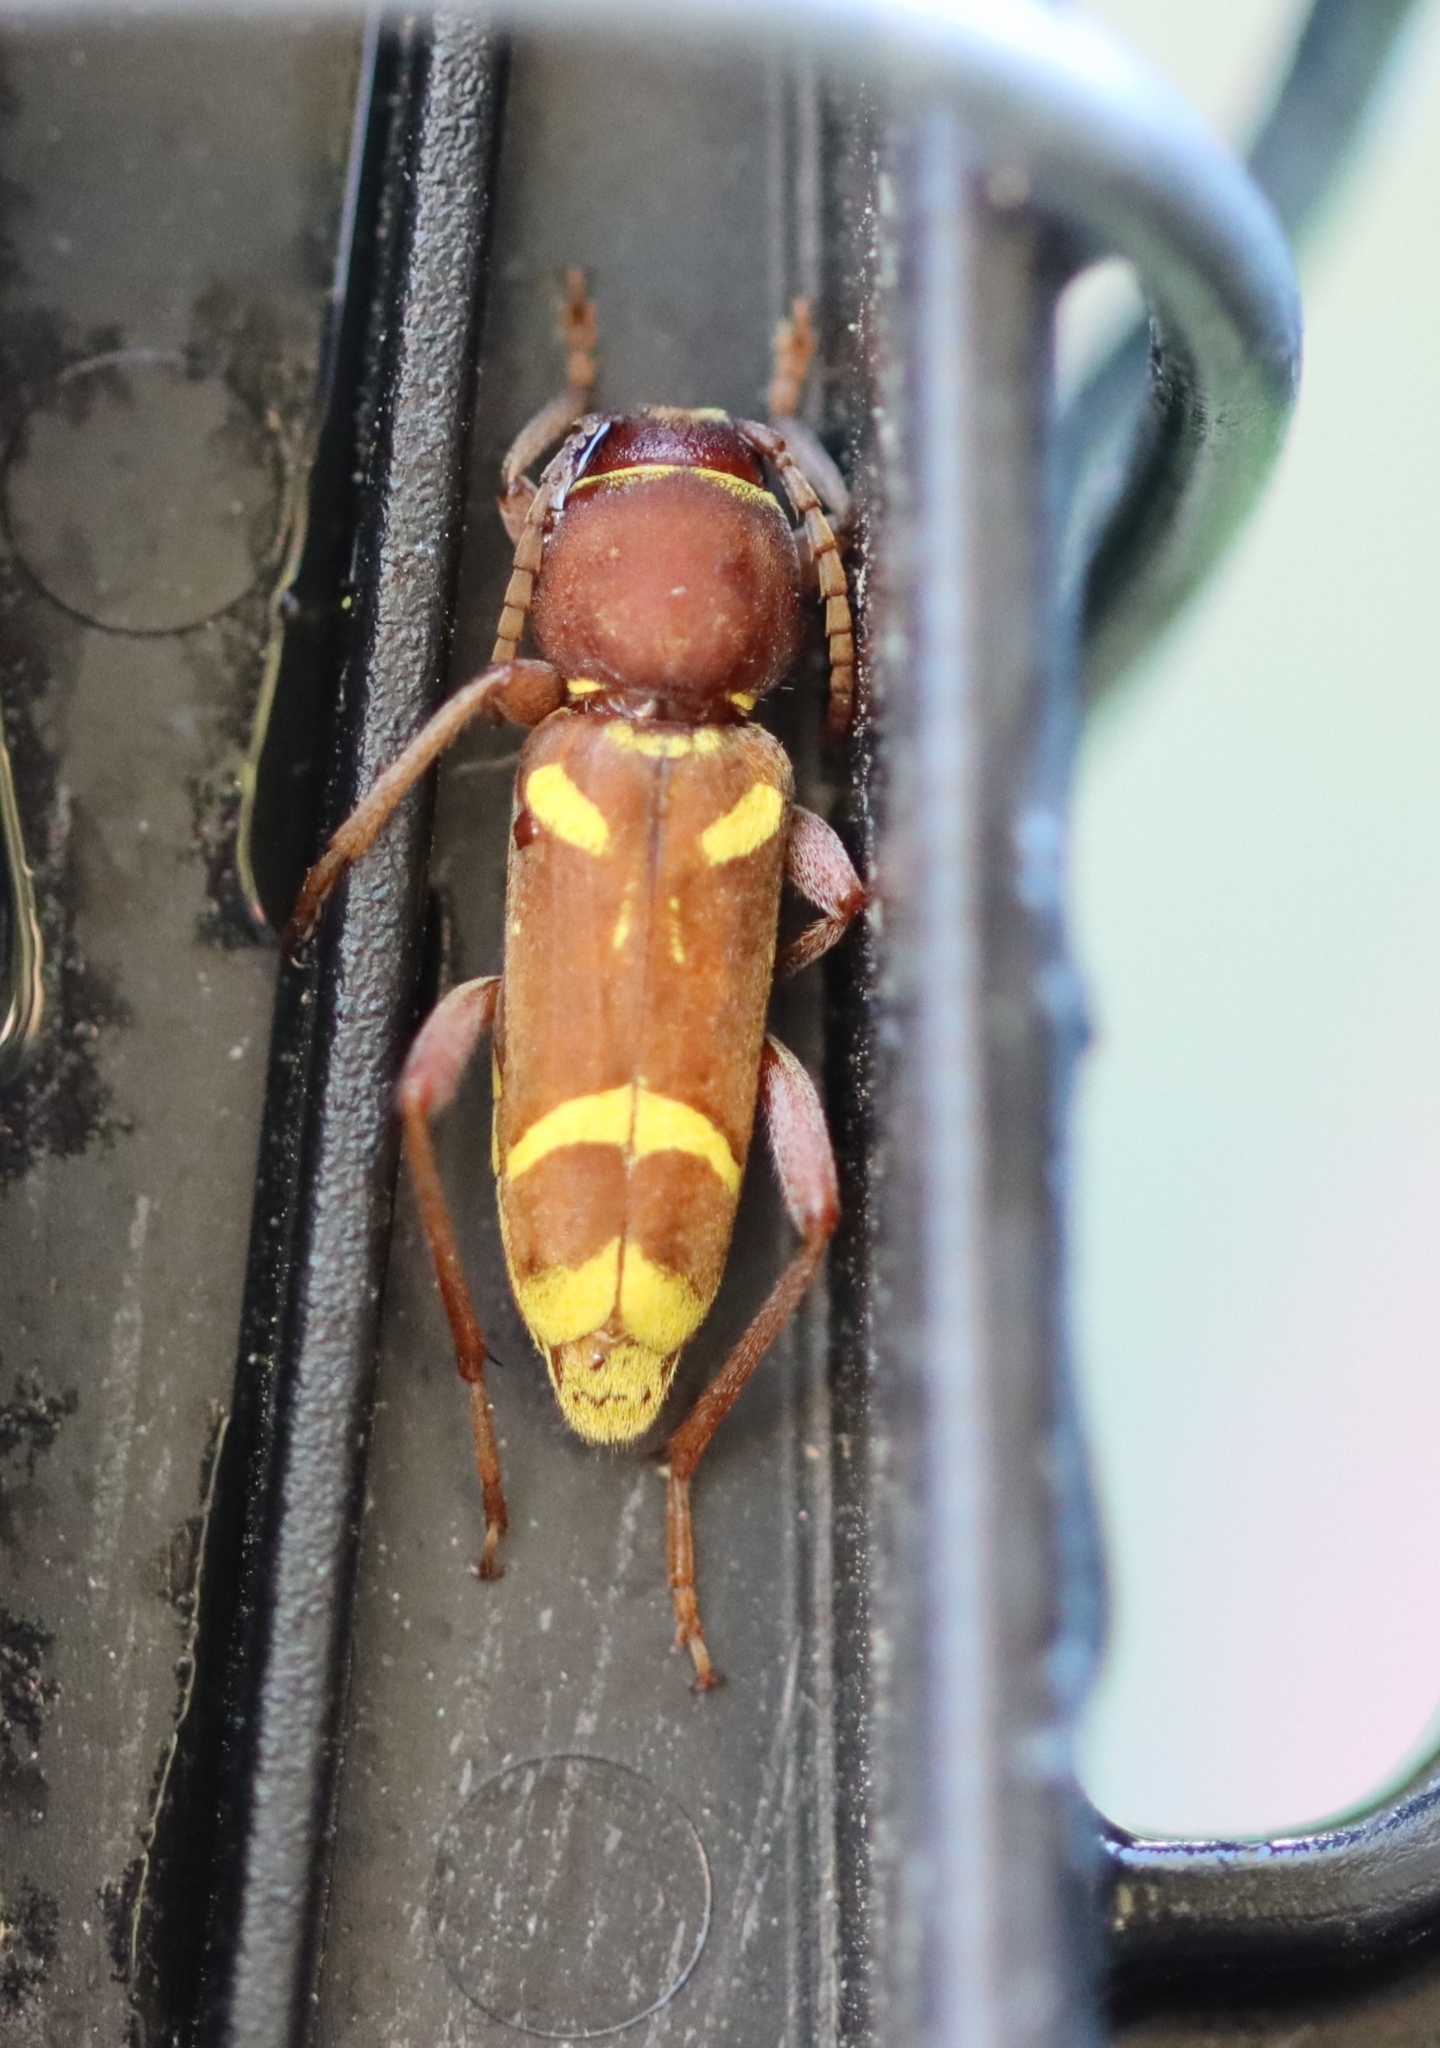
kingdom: Animalia
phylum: Arthropoda
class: Insecta
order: Coleoptera
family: Cerambycidae
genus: Xylotrechus
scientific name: Xylotrechus insignis
